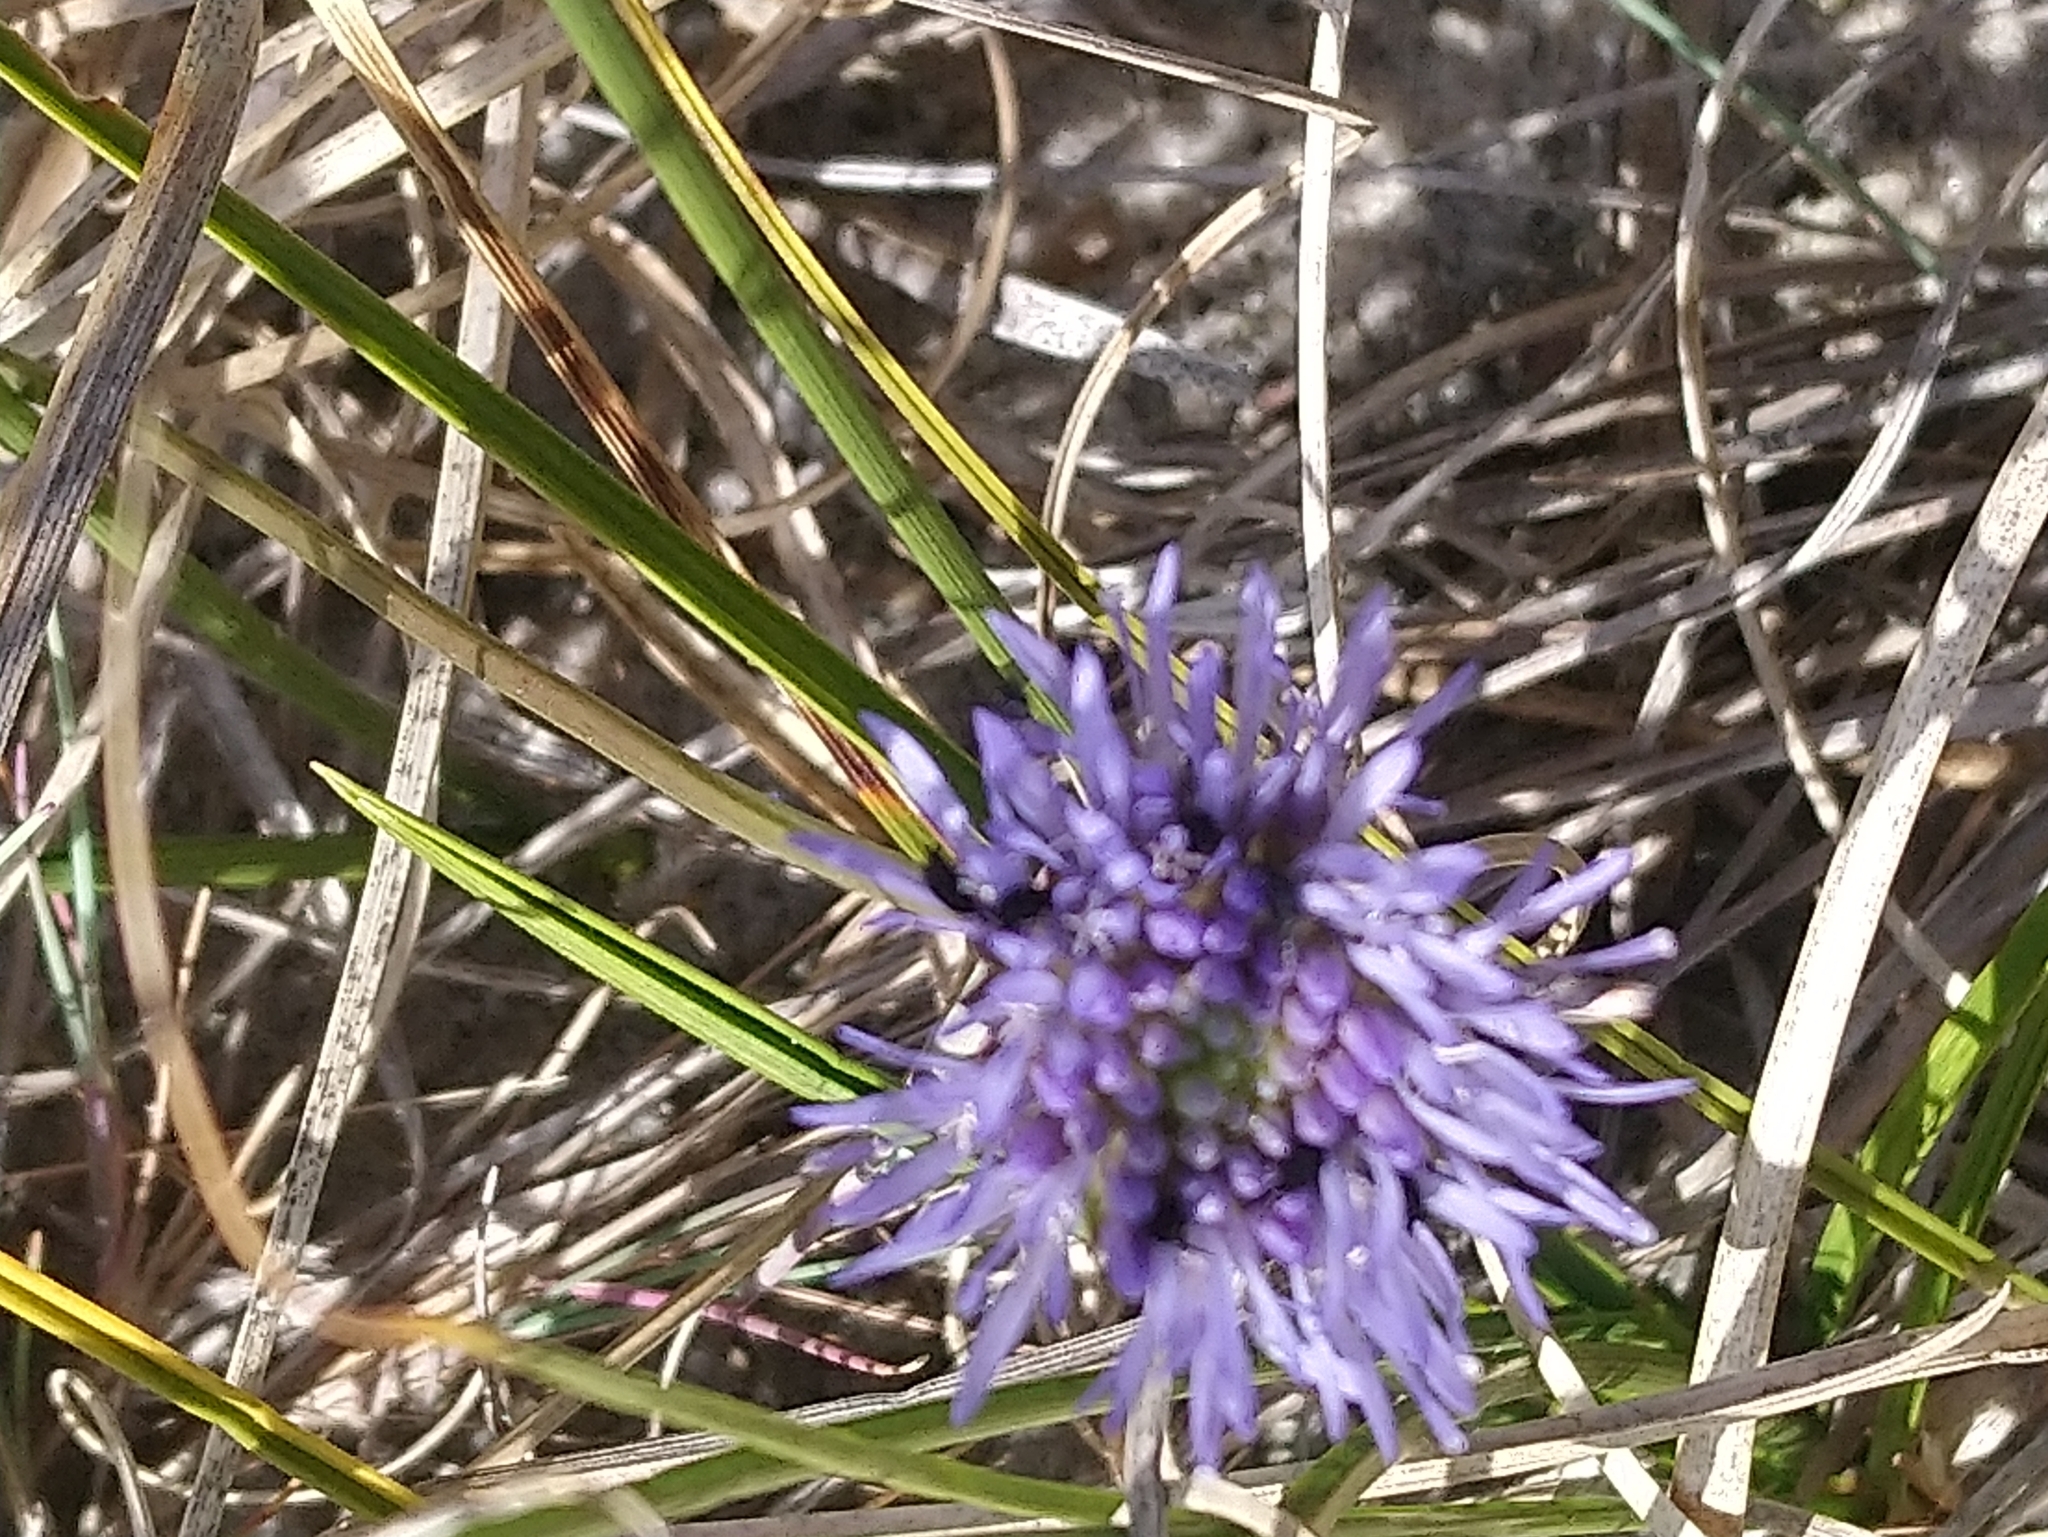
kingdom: Plantae
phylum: Tracheophyta
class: Magnoliopsida
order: Asterales
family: Campanulaceae
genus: Jasione
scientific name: Jasione montana
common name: Sheep's-bit
